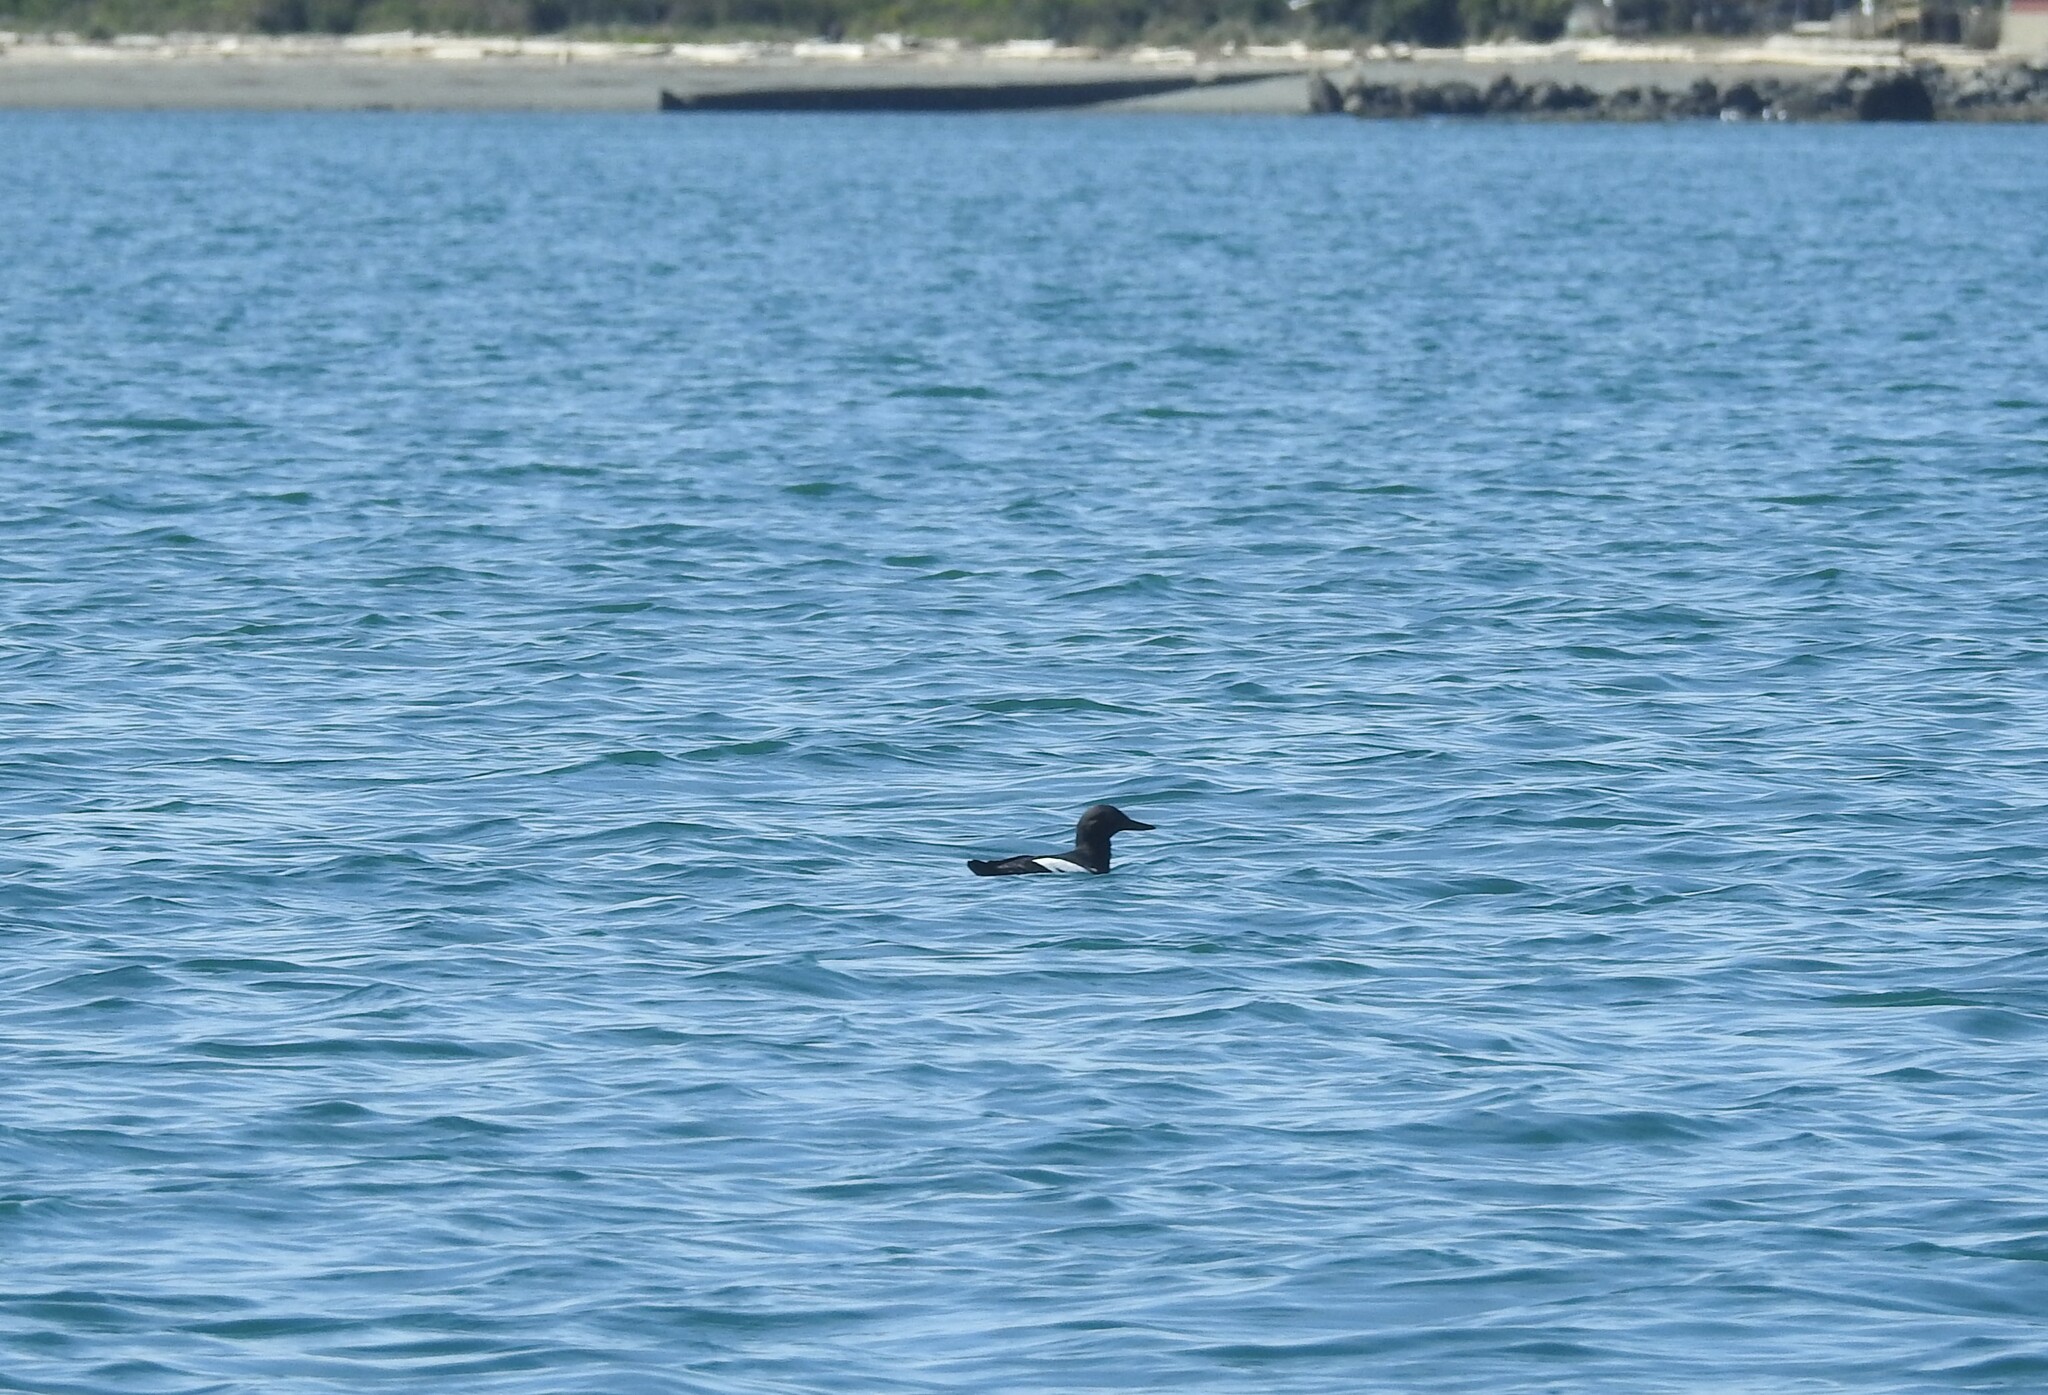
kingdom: Animalia
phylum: Chordata
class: Aves
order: Charadriiformes
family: Alcidae
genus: Cepphus
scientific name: Cepphus columba
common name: Pigeon guillemot
